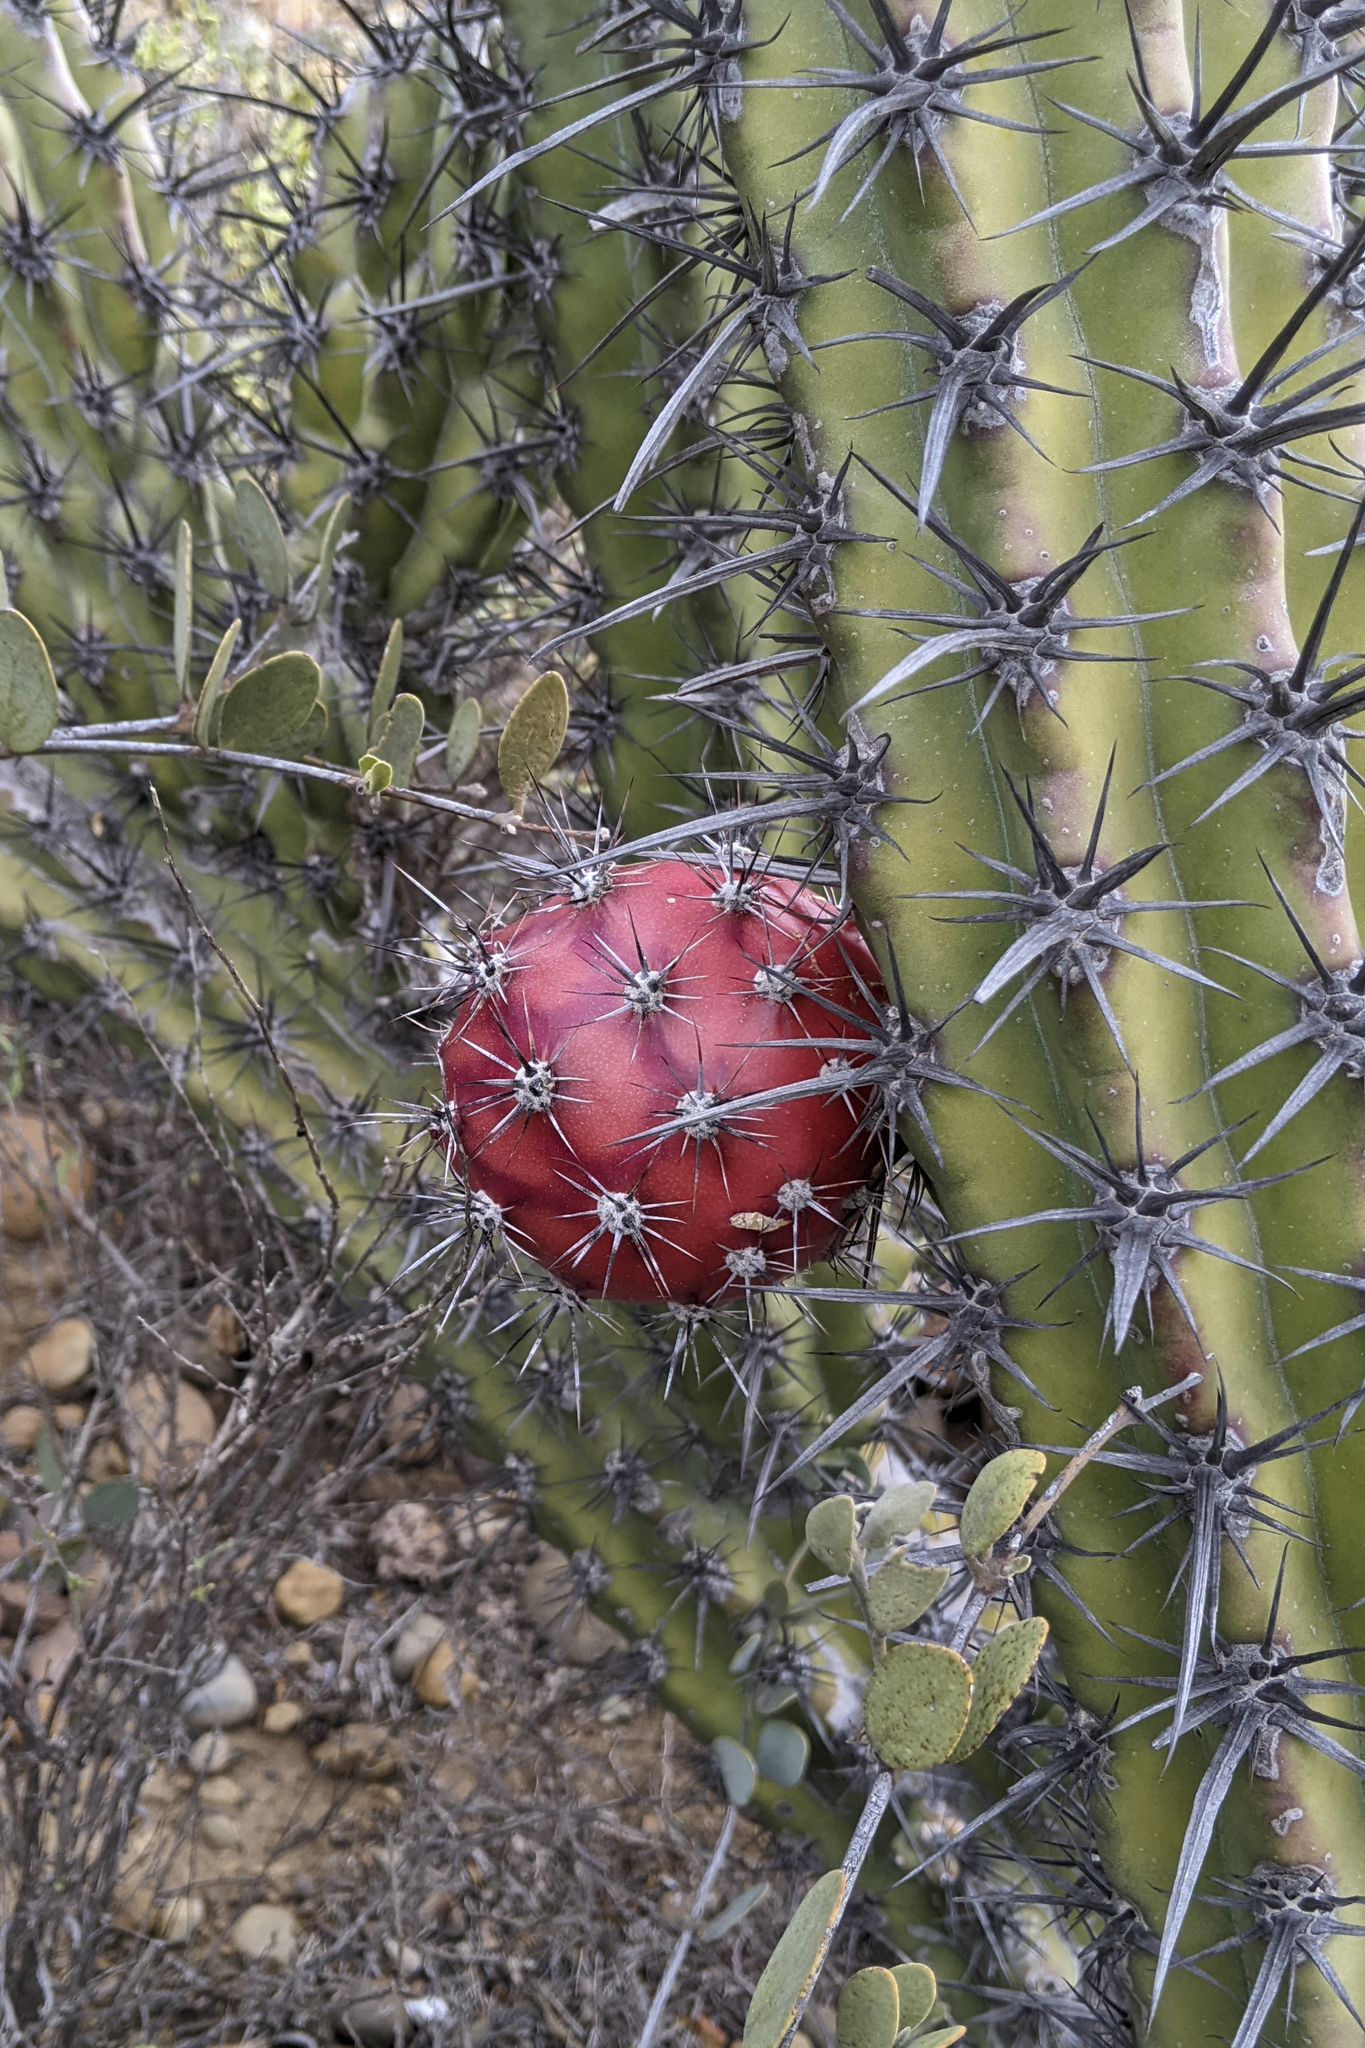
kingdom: Plantae
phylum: Tracheophyta
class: Magnoliopsida
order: Caryophyllales
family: Cactaceae
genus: Stenocereus
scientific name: Stenocereus gummosus
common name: Dagger cactus
